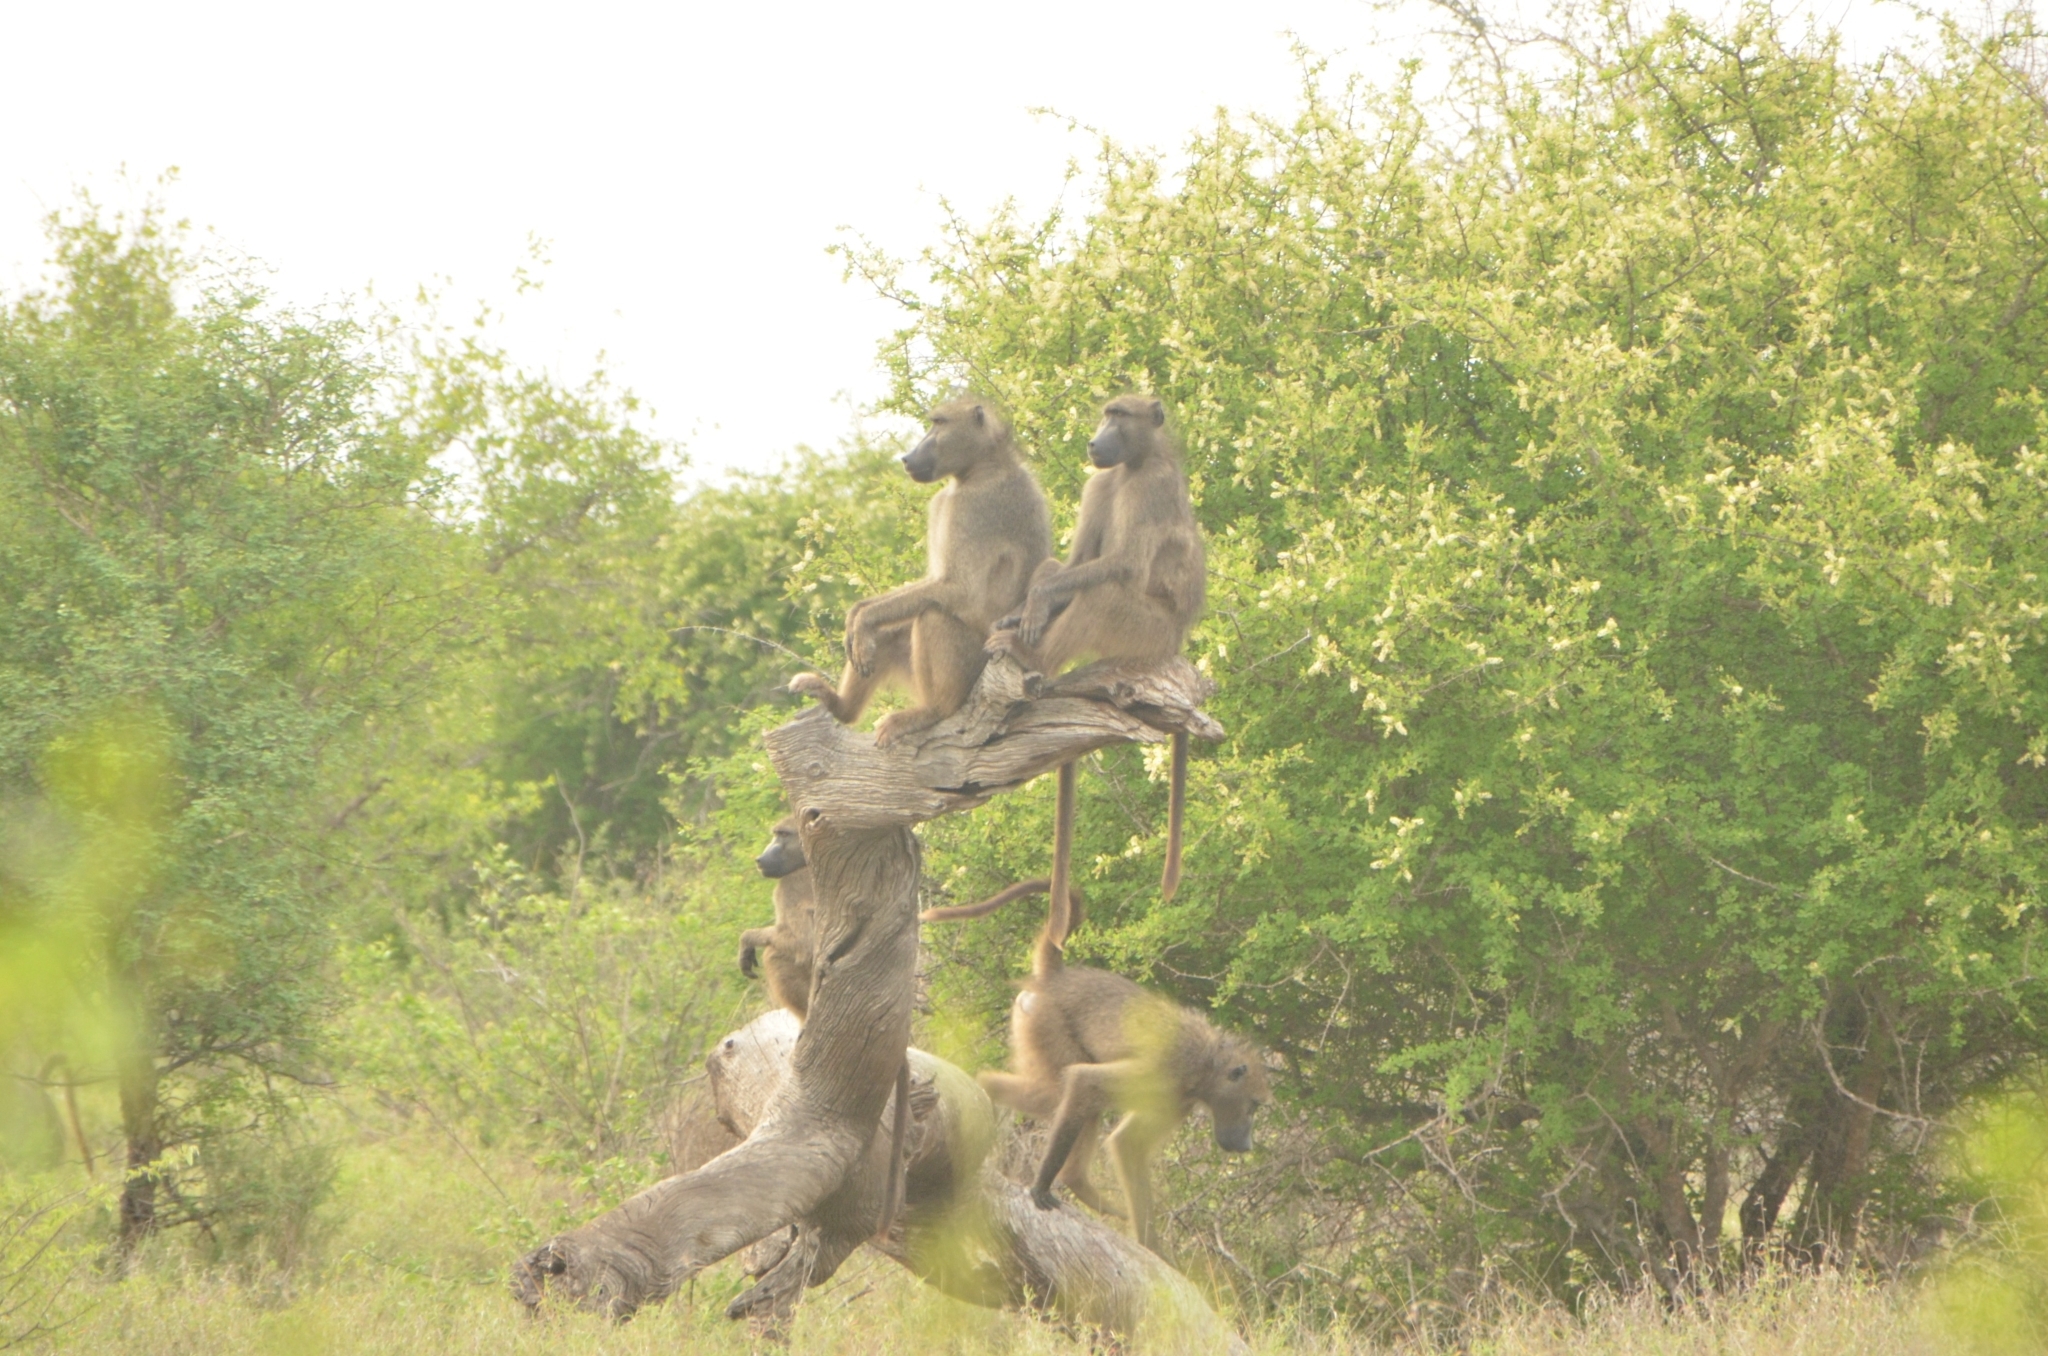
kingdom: Animalia
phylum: Chordata
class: Mammalia
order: Primates
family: Cercopithecidae
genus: Papio
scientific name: Papio ursinus
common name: Chacma baboon
